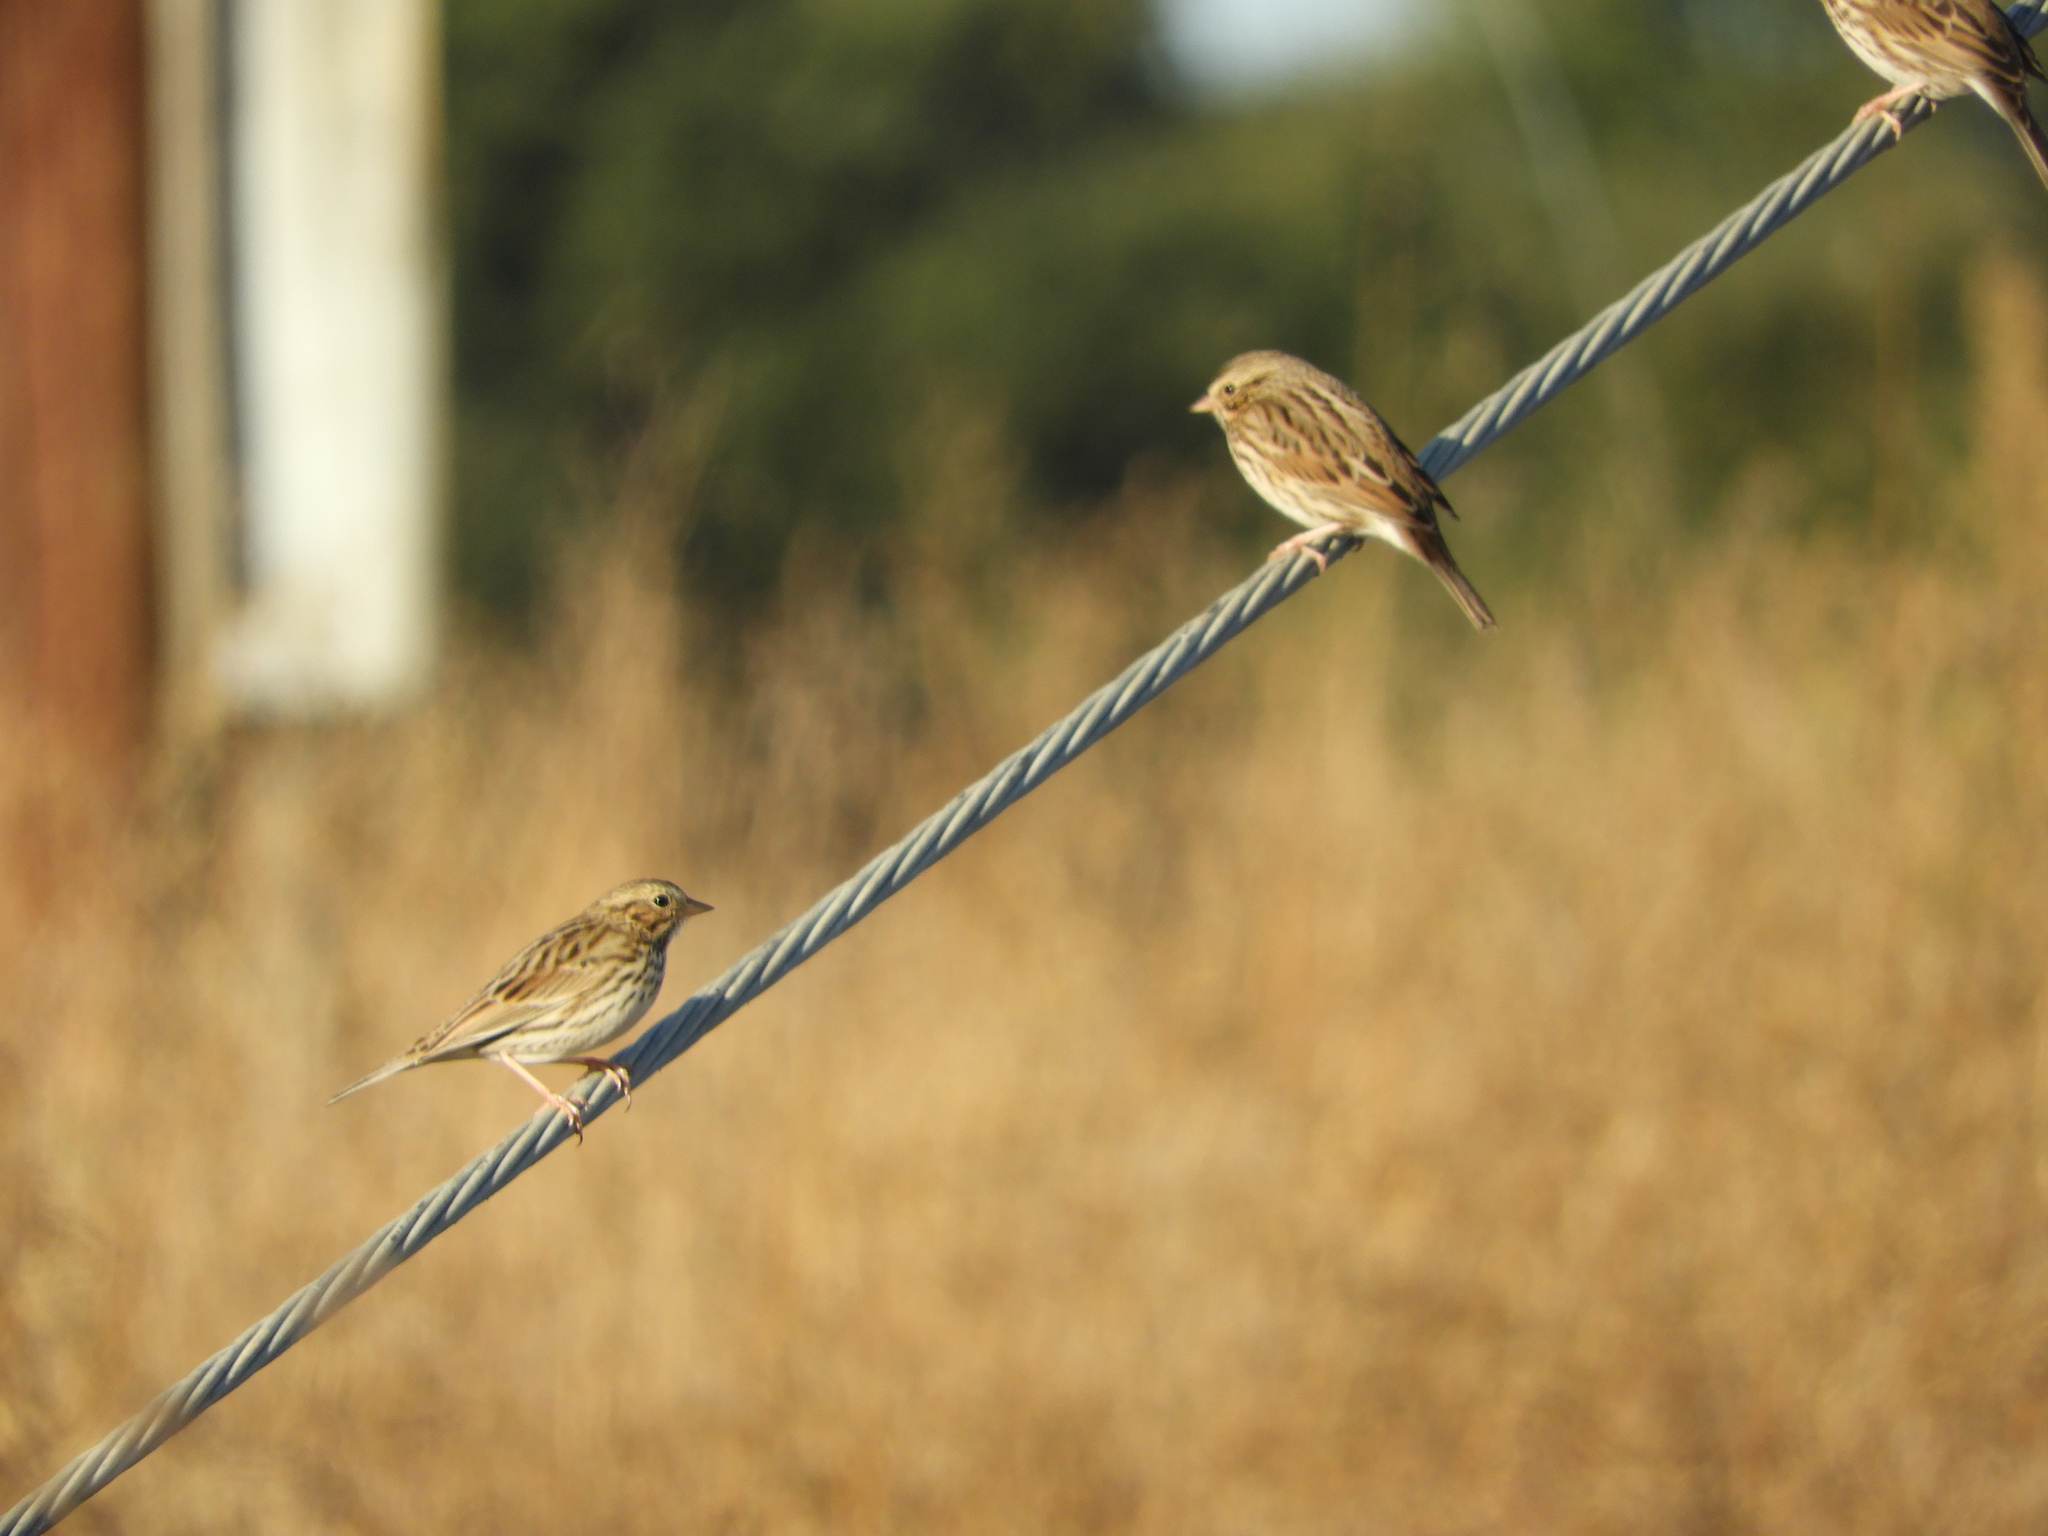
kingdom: Animalia
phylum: Chordata
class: Aves
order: Passeriformes
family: Passerellidae
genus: Passerculus
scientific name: Passerculus sandwichensis
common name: Savannah sparrow
